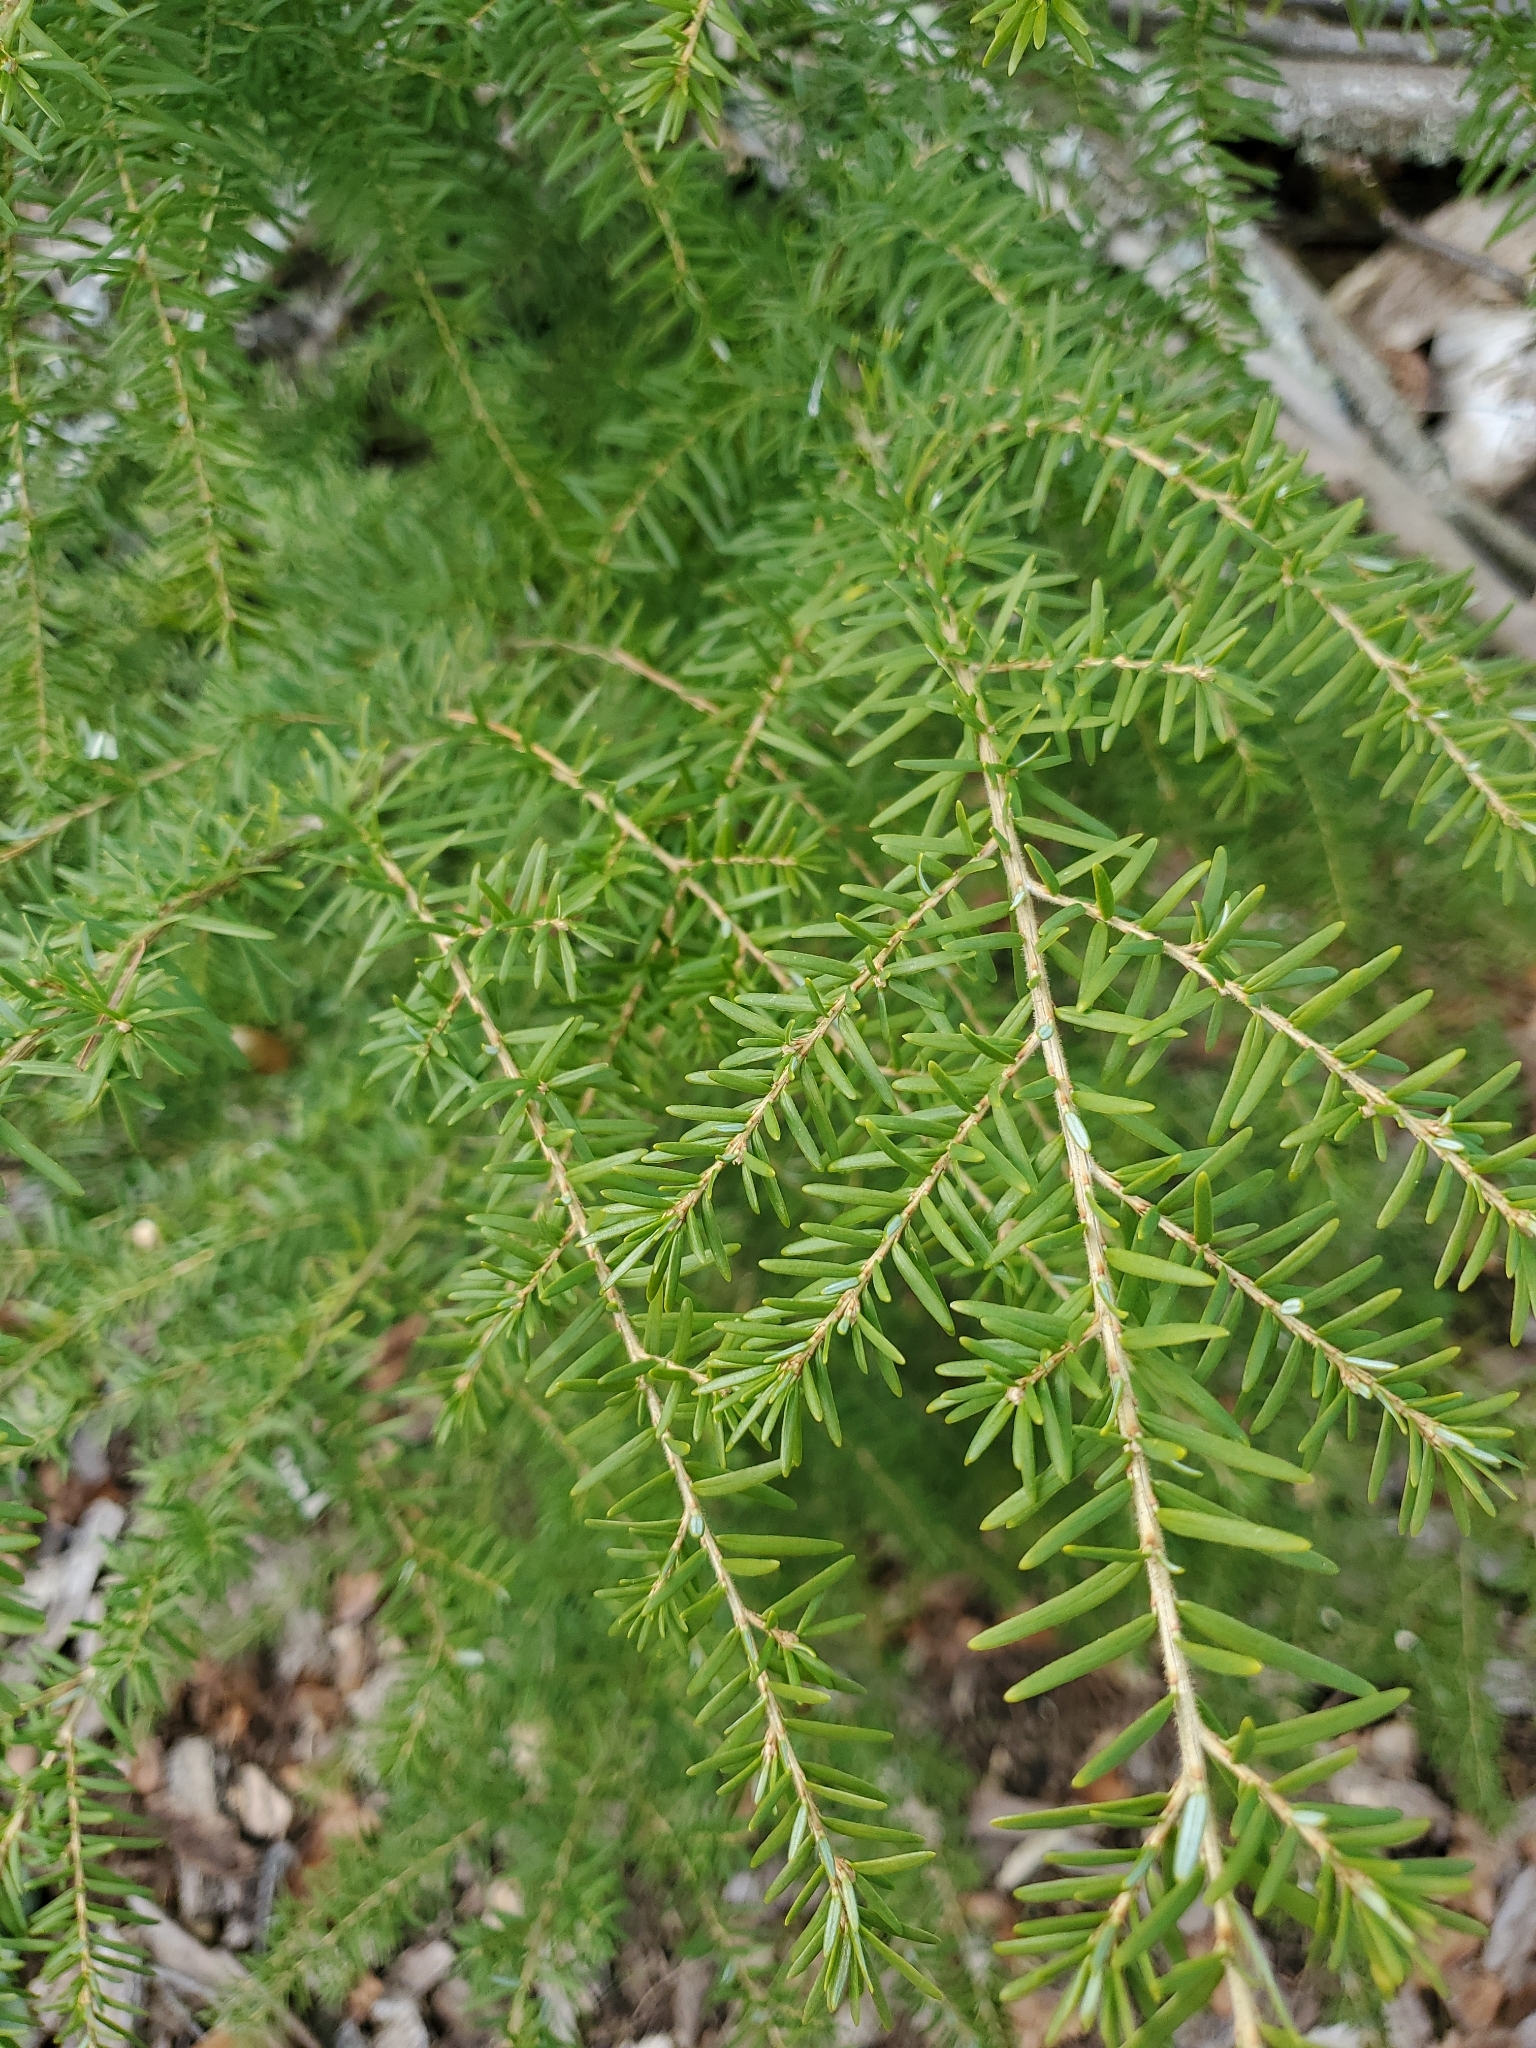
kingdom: Plantae
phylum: Tracheophyta
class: Pinopsida
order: Pinales
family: Pinaceae
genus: Tsuga
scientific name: Tsuga heterophylla
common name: Western hemlock
